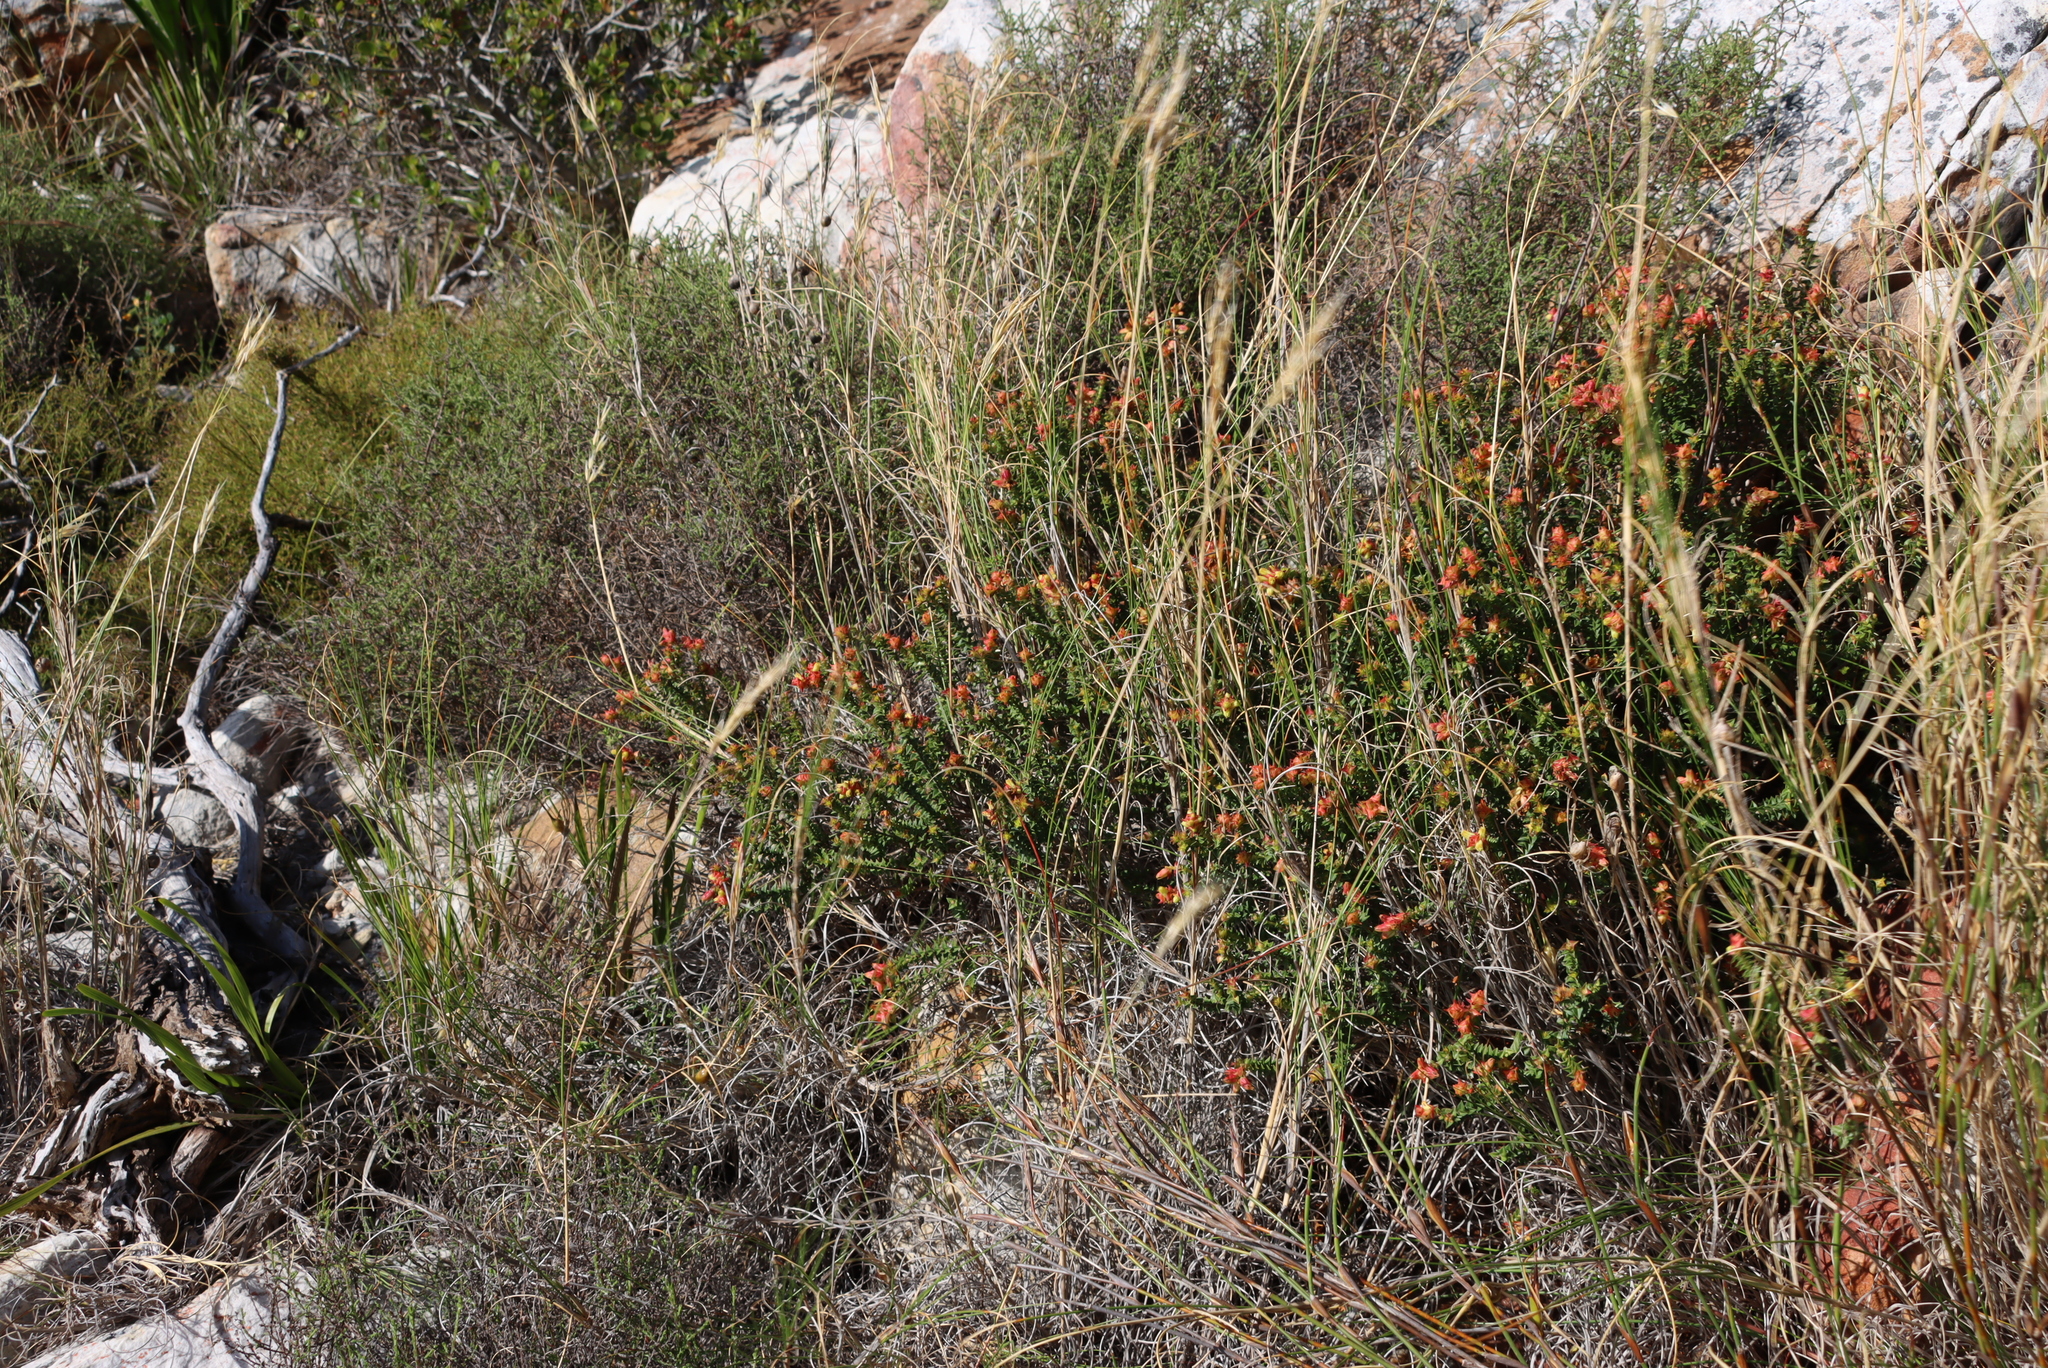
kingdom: Plantae
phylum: Tracheophyta
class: Magnoliopsida
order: Myrtales
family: Penaeaceae
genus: Penaea
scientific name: Penaea mucronata
